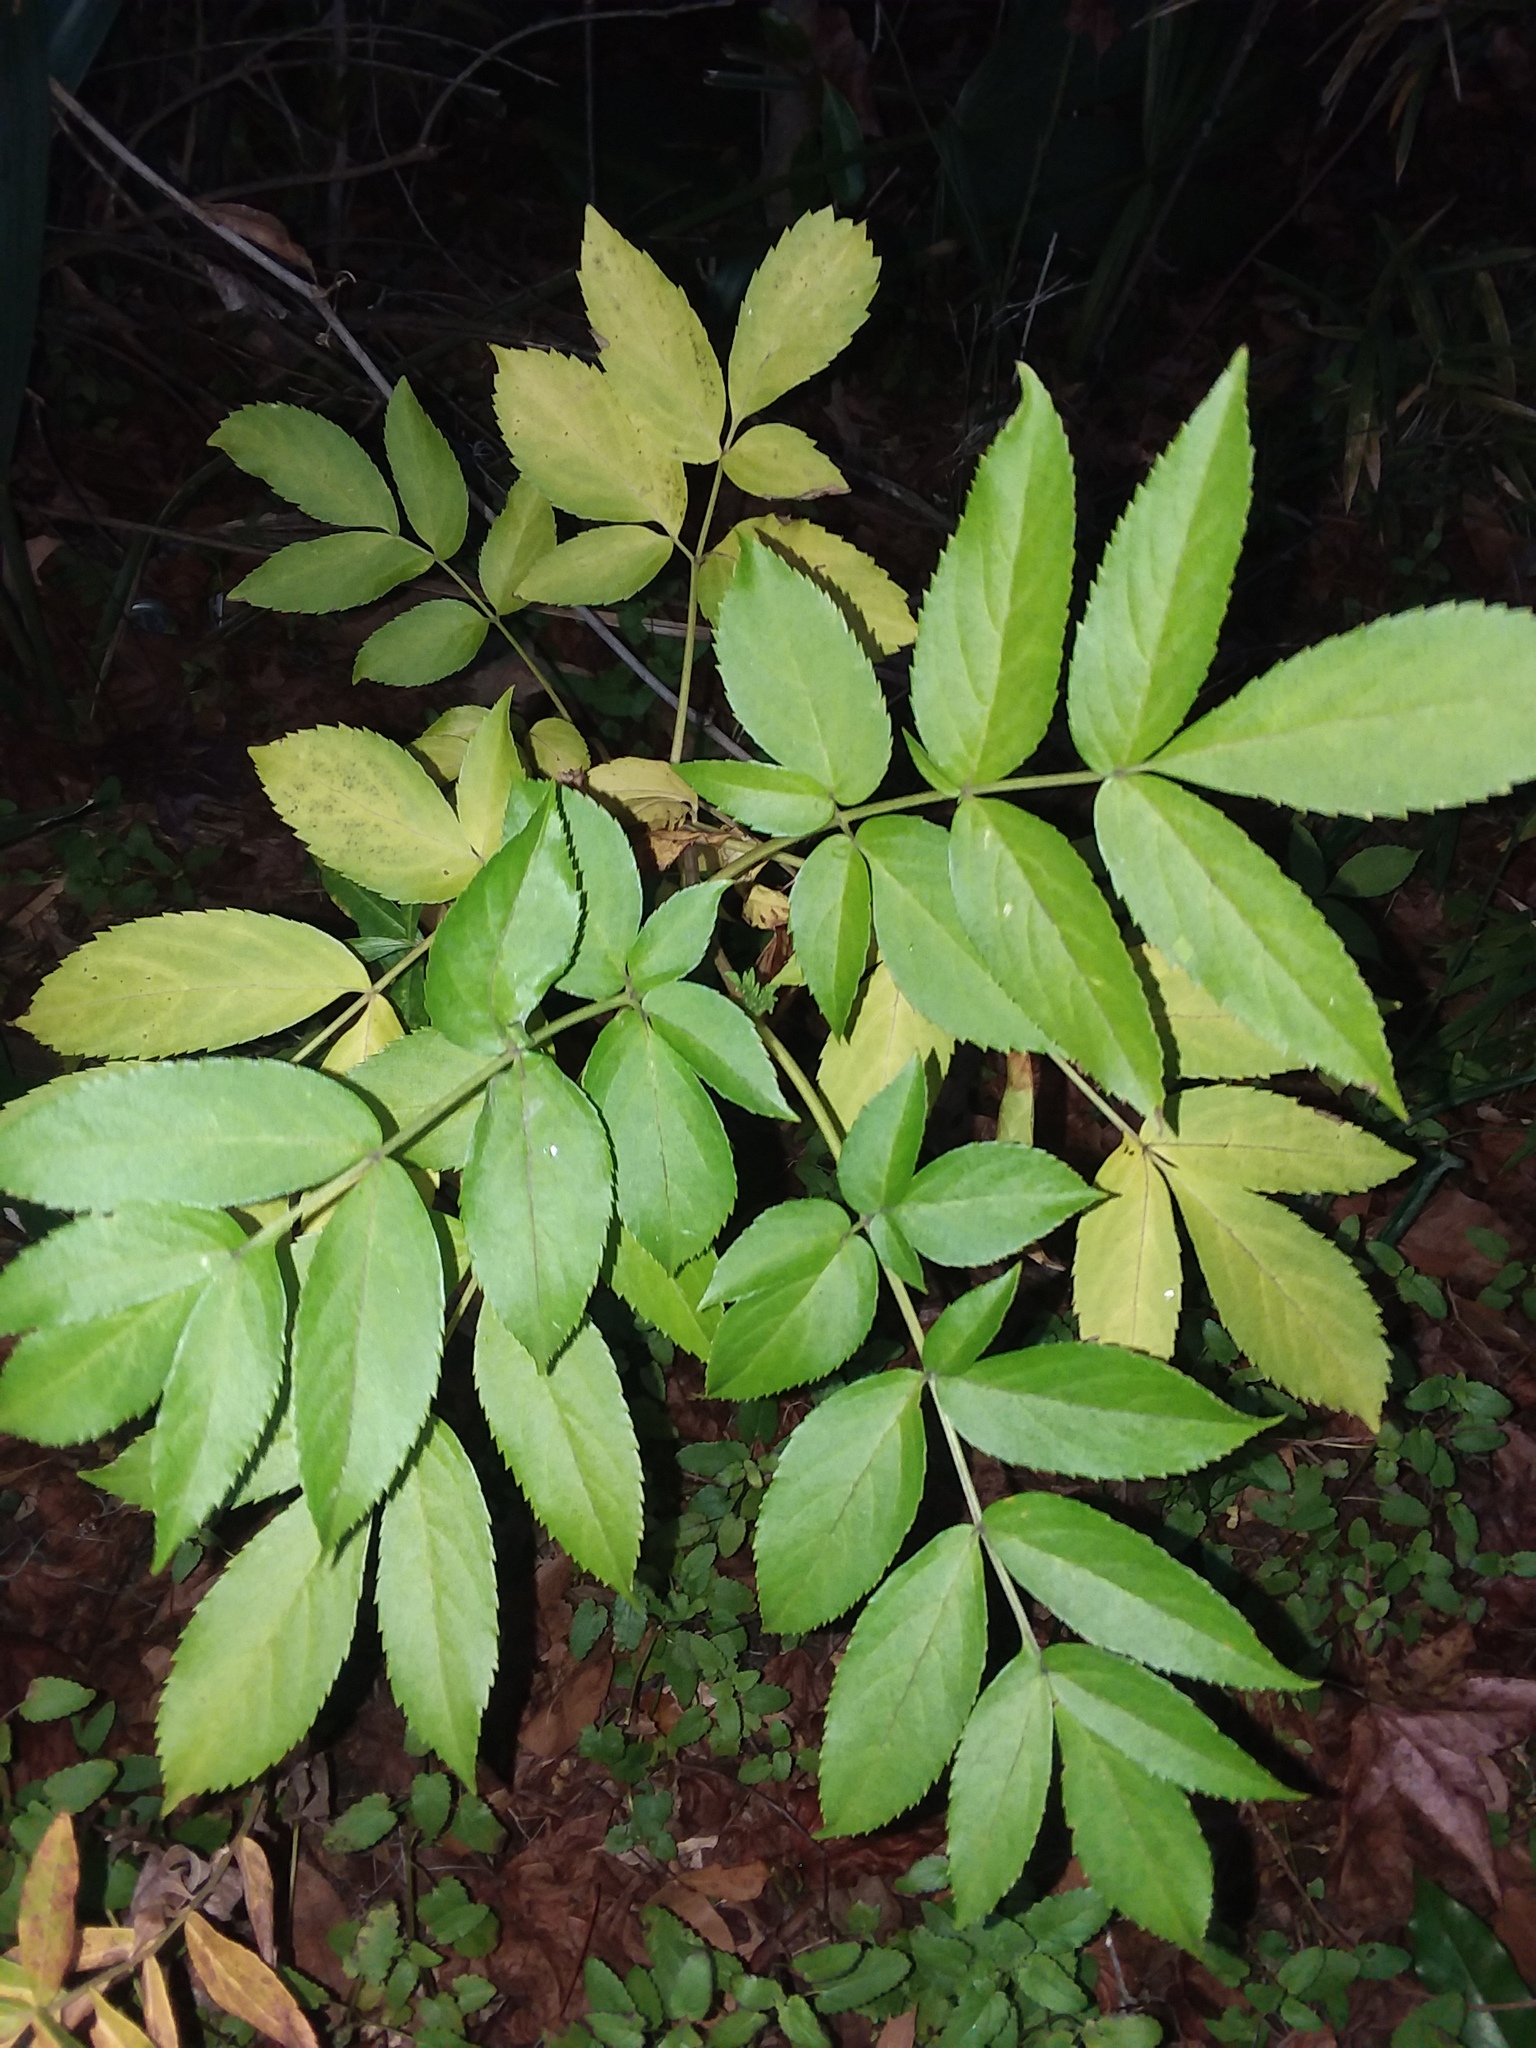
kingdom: Plantae
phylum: Tracheophyta
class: Magnoliopsida
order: Dipsacales
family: Viburnaceae
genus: Sambucus
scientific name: Sambucus canadensis
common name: American elder
